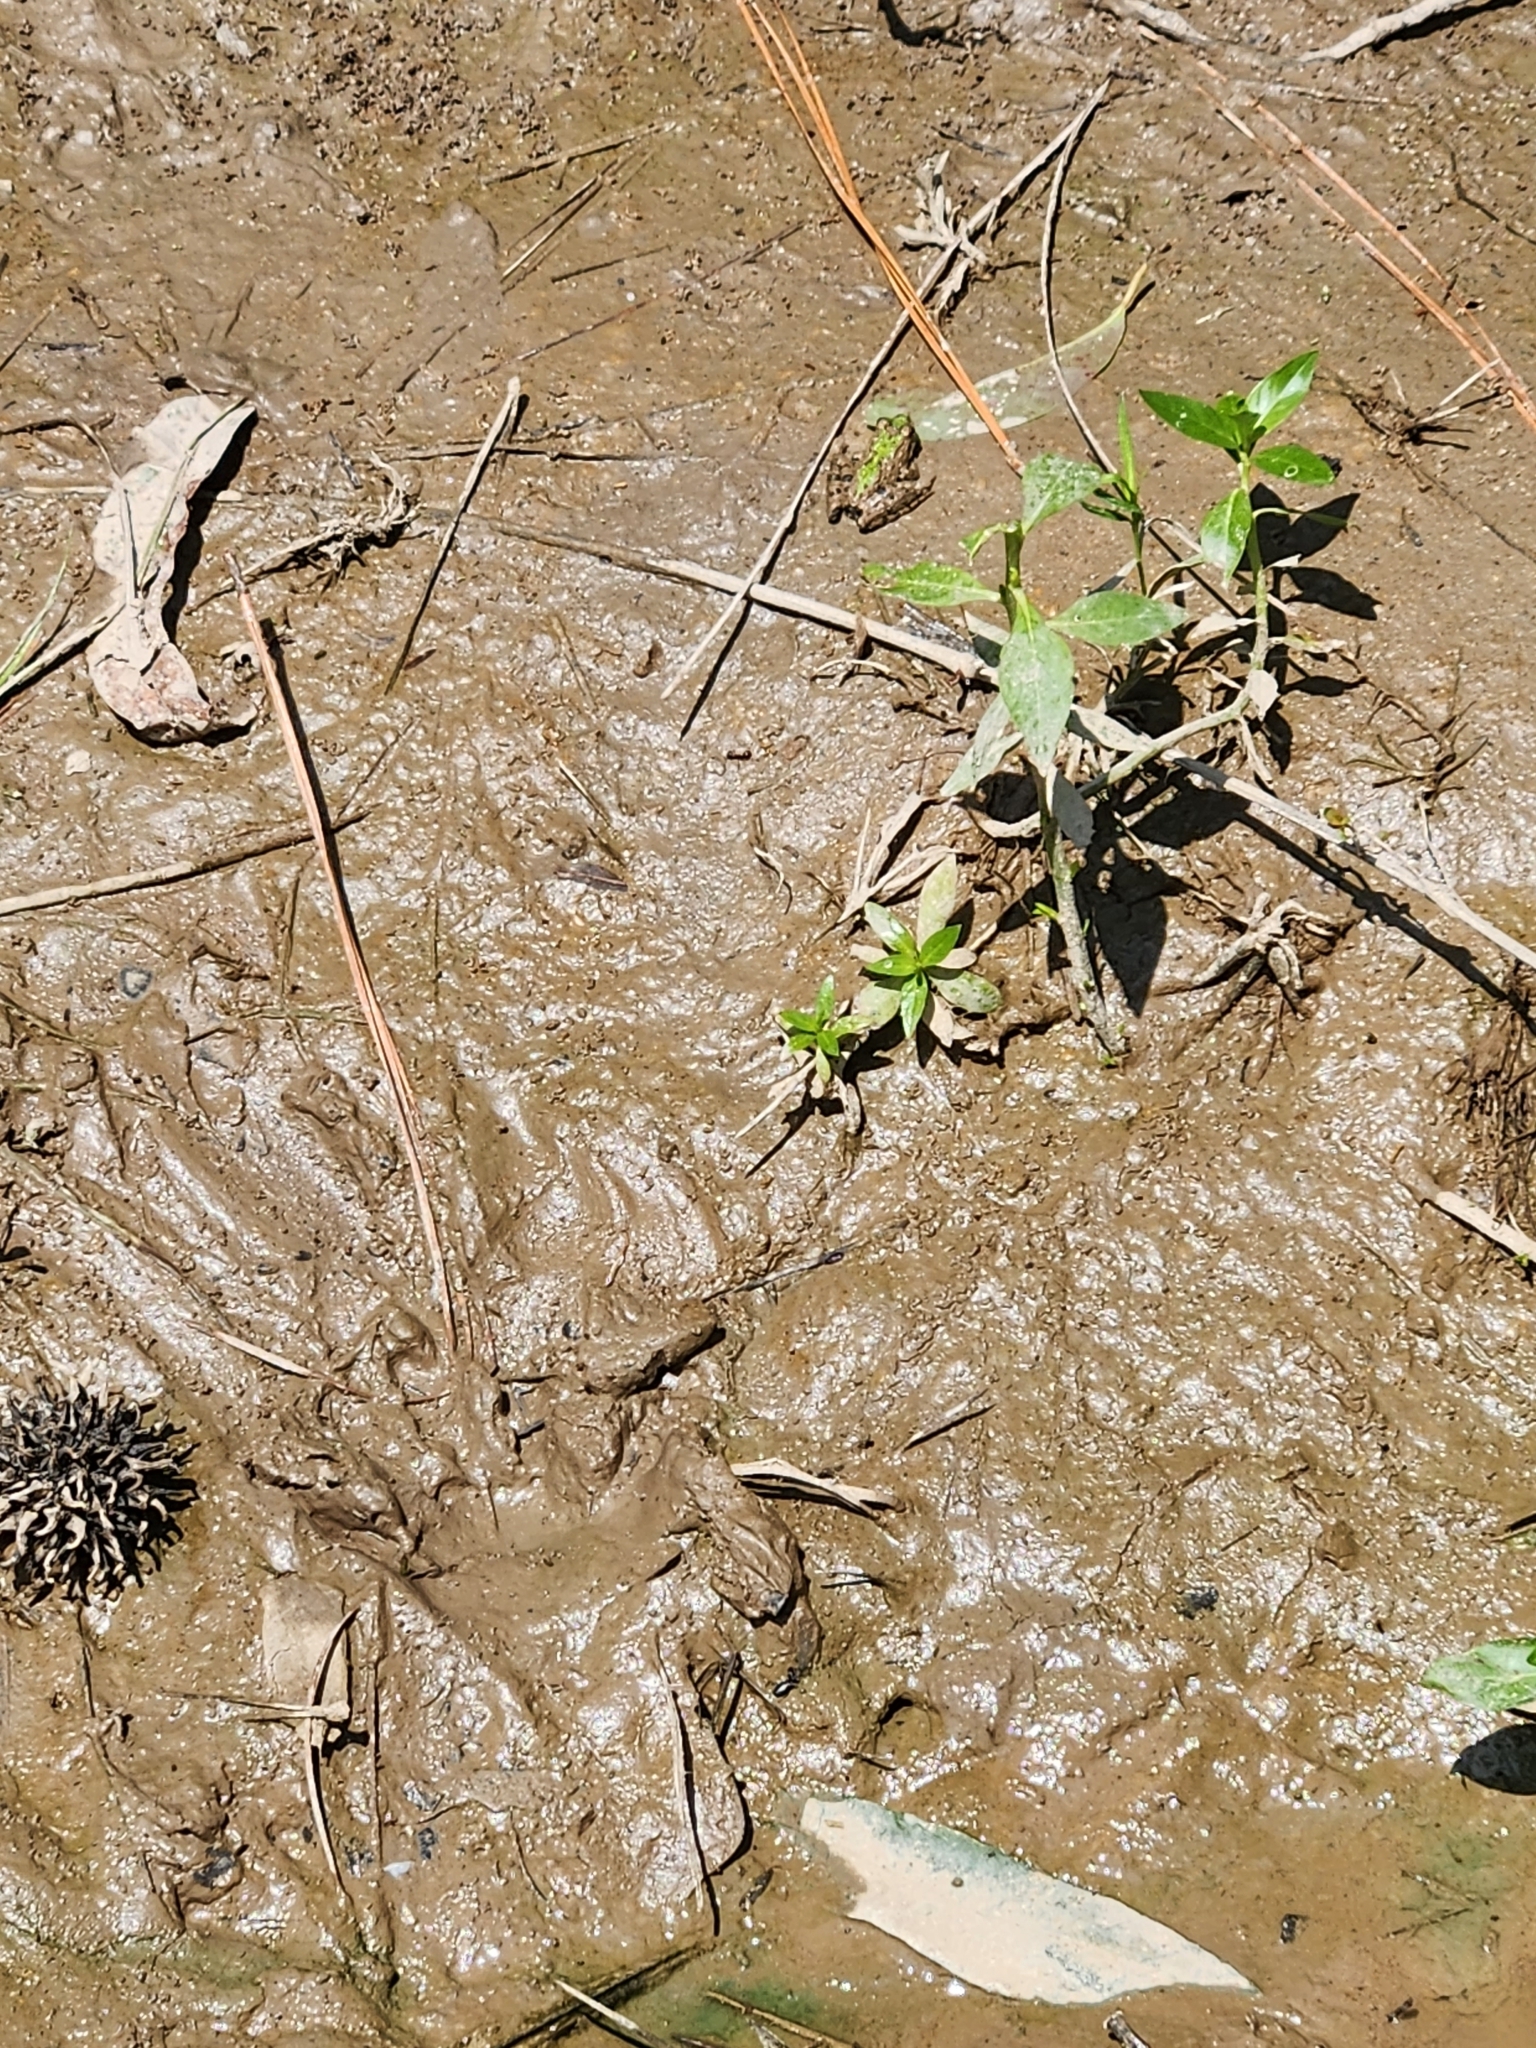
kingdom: Animalia
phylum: Chordata
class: Amphibia
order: Anura
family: Hylidae
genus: Acris
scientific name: Acris blanchardi
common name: Blanchard's cricket frog
